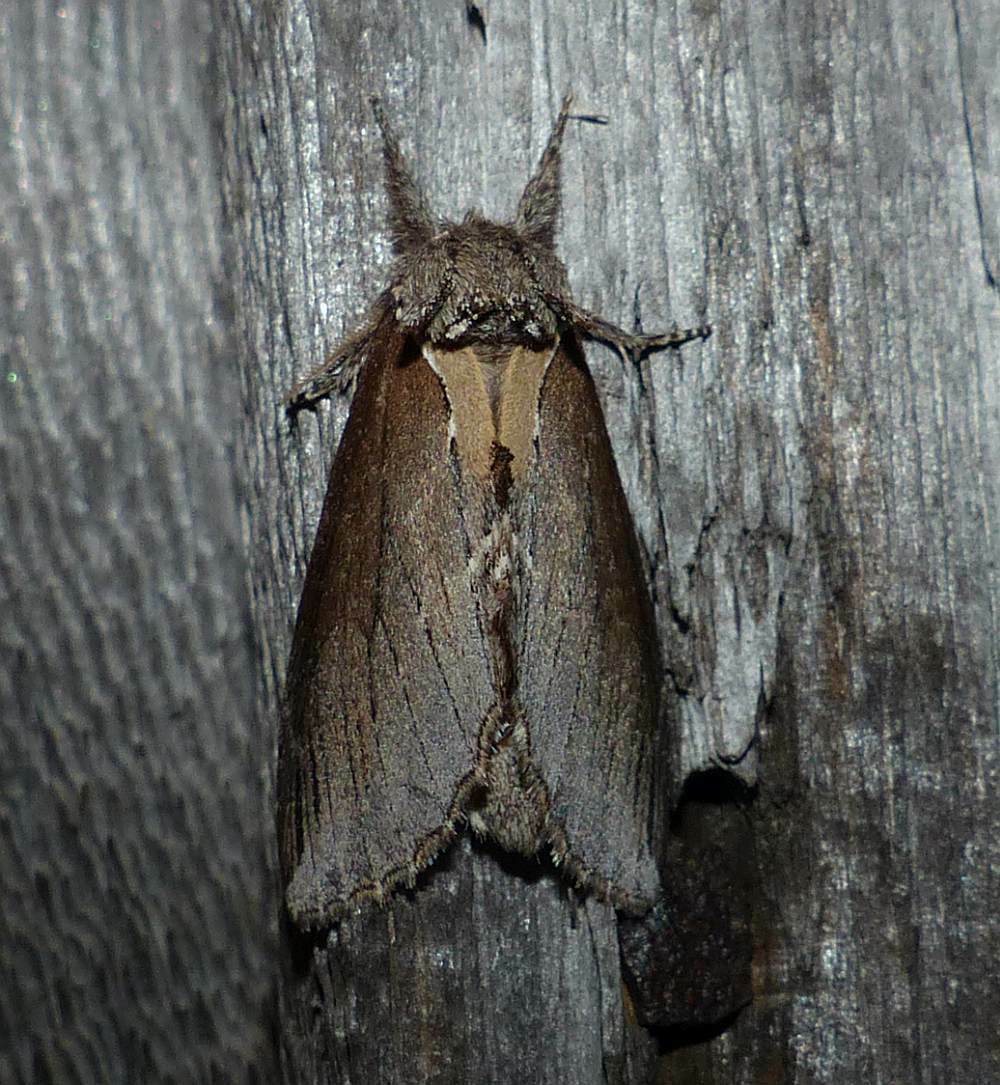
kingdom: Animalia
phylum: Arthropoda
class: Insecta
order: Lepidoptera
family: Notodontidae
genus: Pheosidea
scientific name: Pheosidea elegans
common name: Elegant prominent
